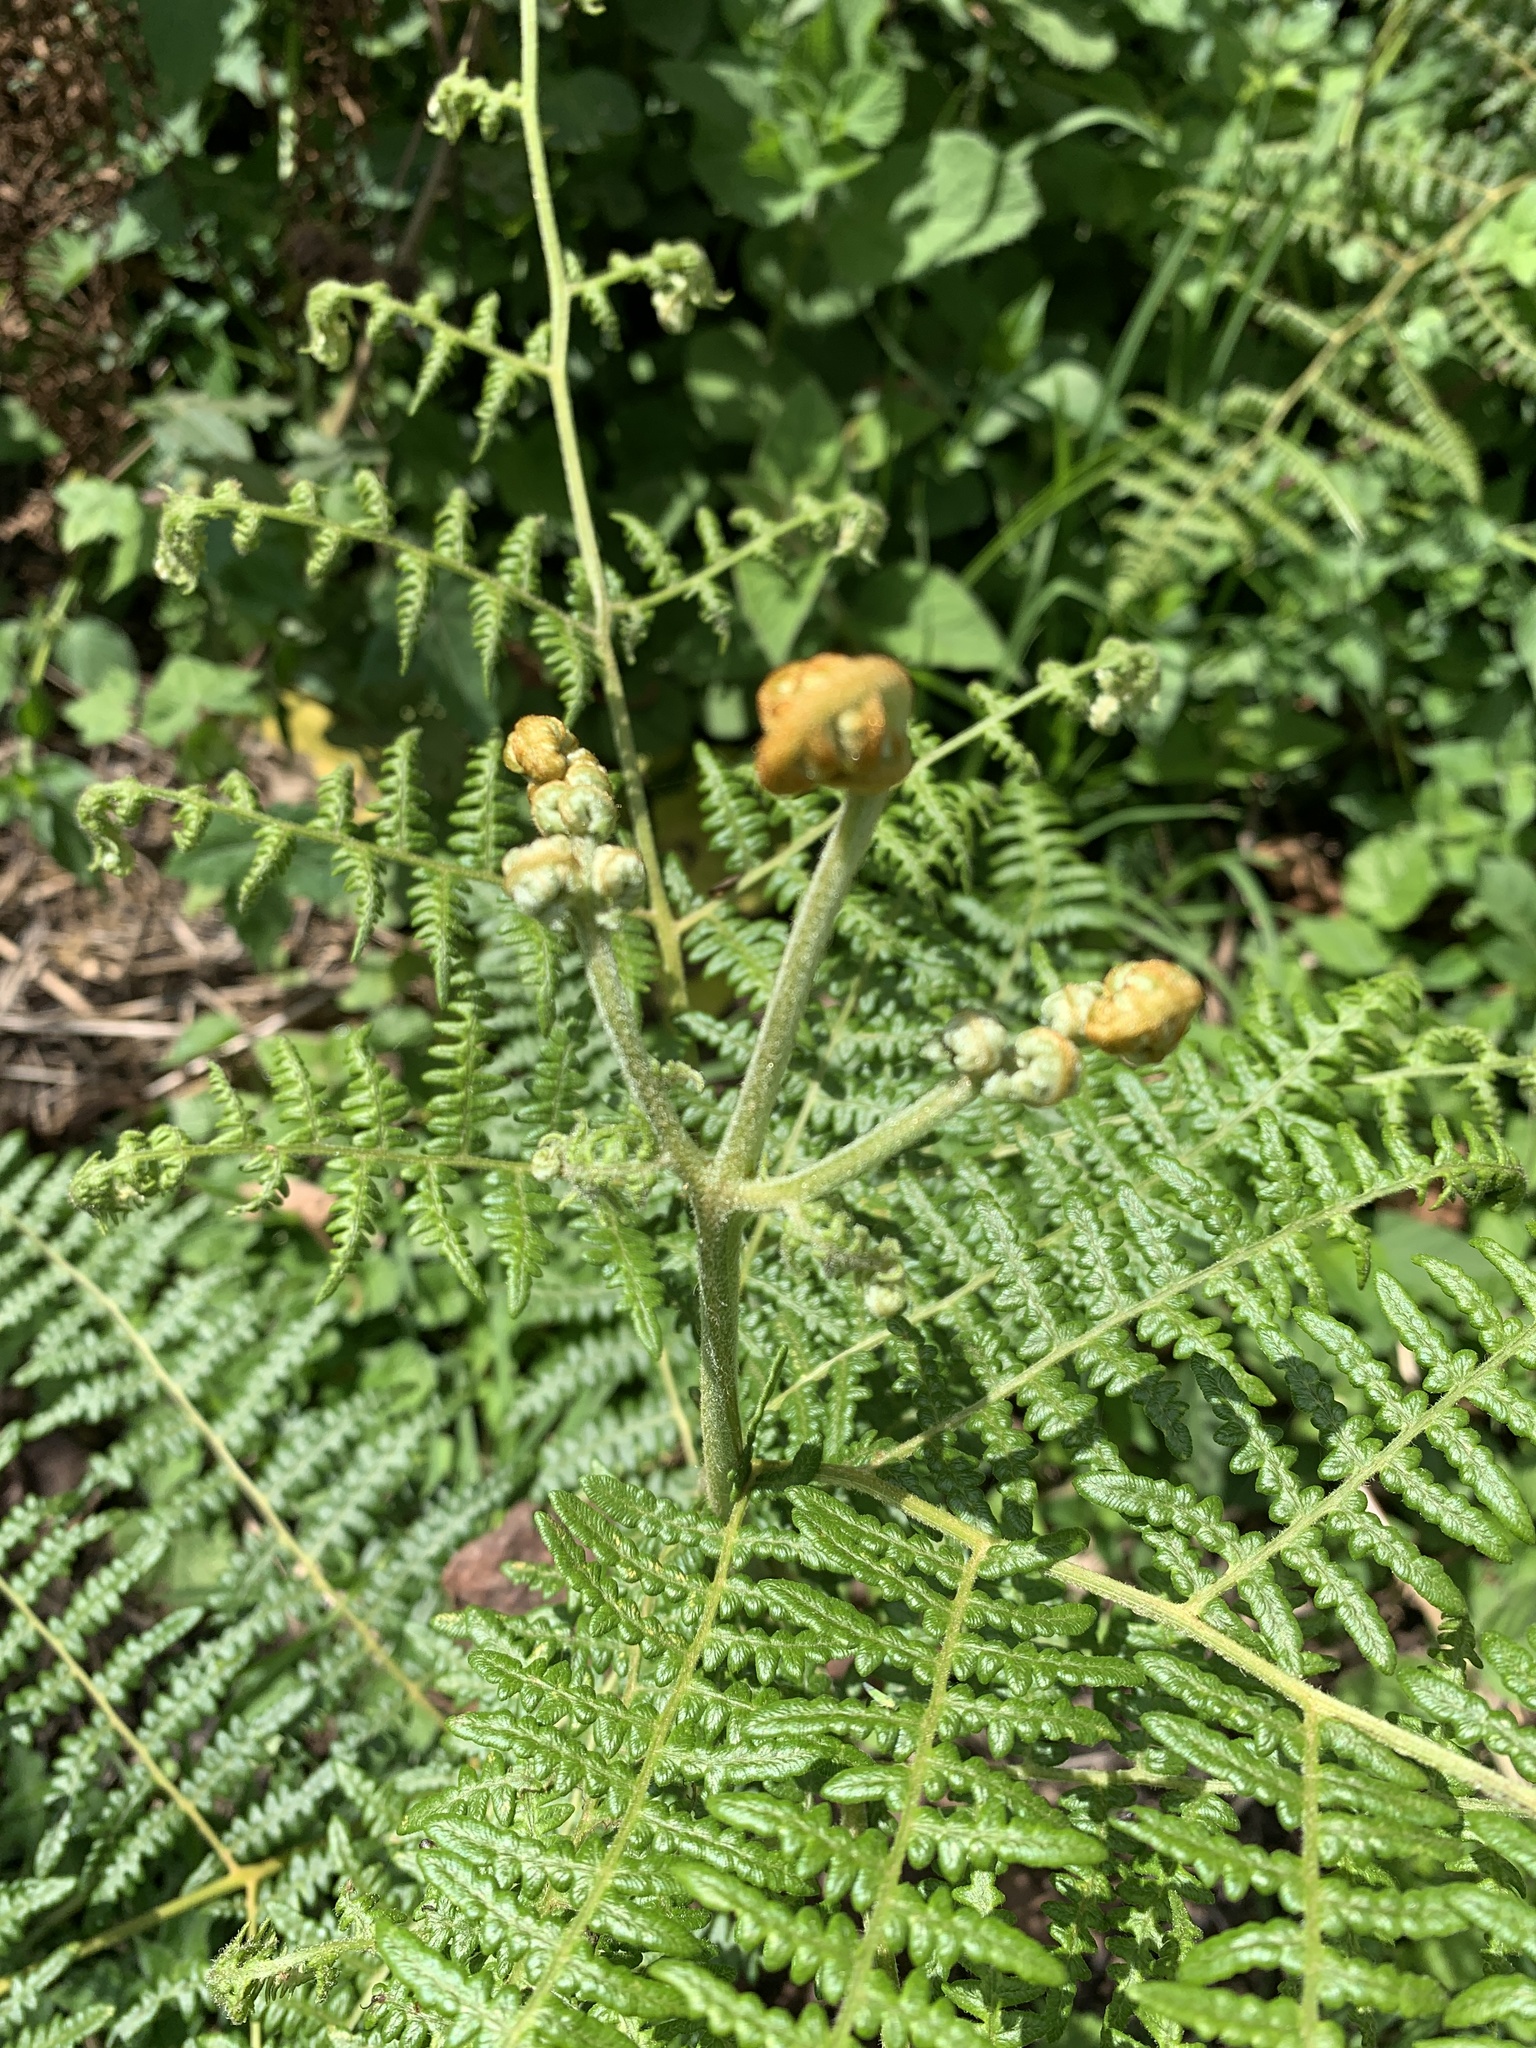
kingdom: Plantae
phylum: Tracheophyta
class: Polypodiopsida
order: Polypodiales
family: Dennstaedtiaceae
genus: Pteridium
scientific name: Pteridium aquilinum
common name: Bracken
